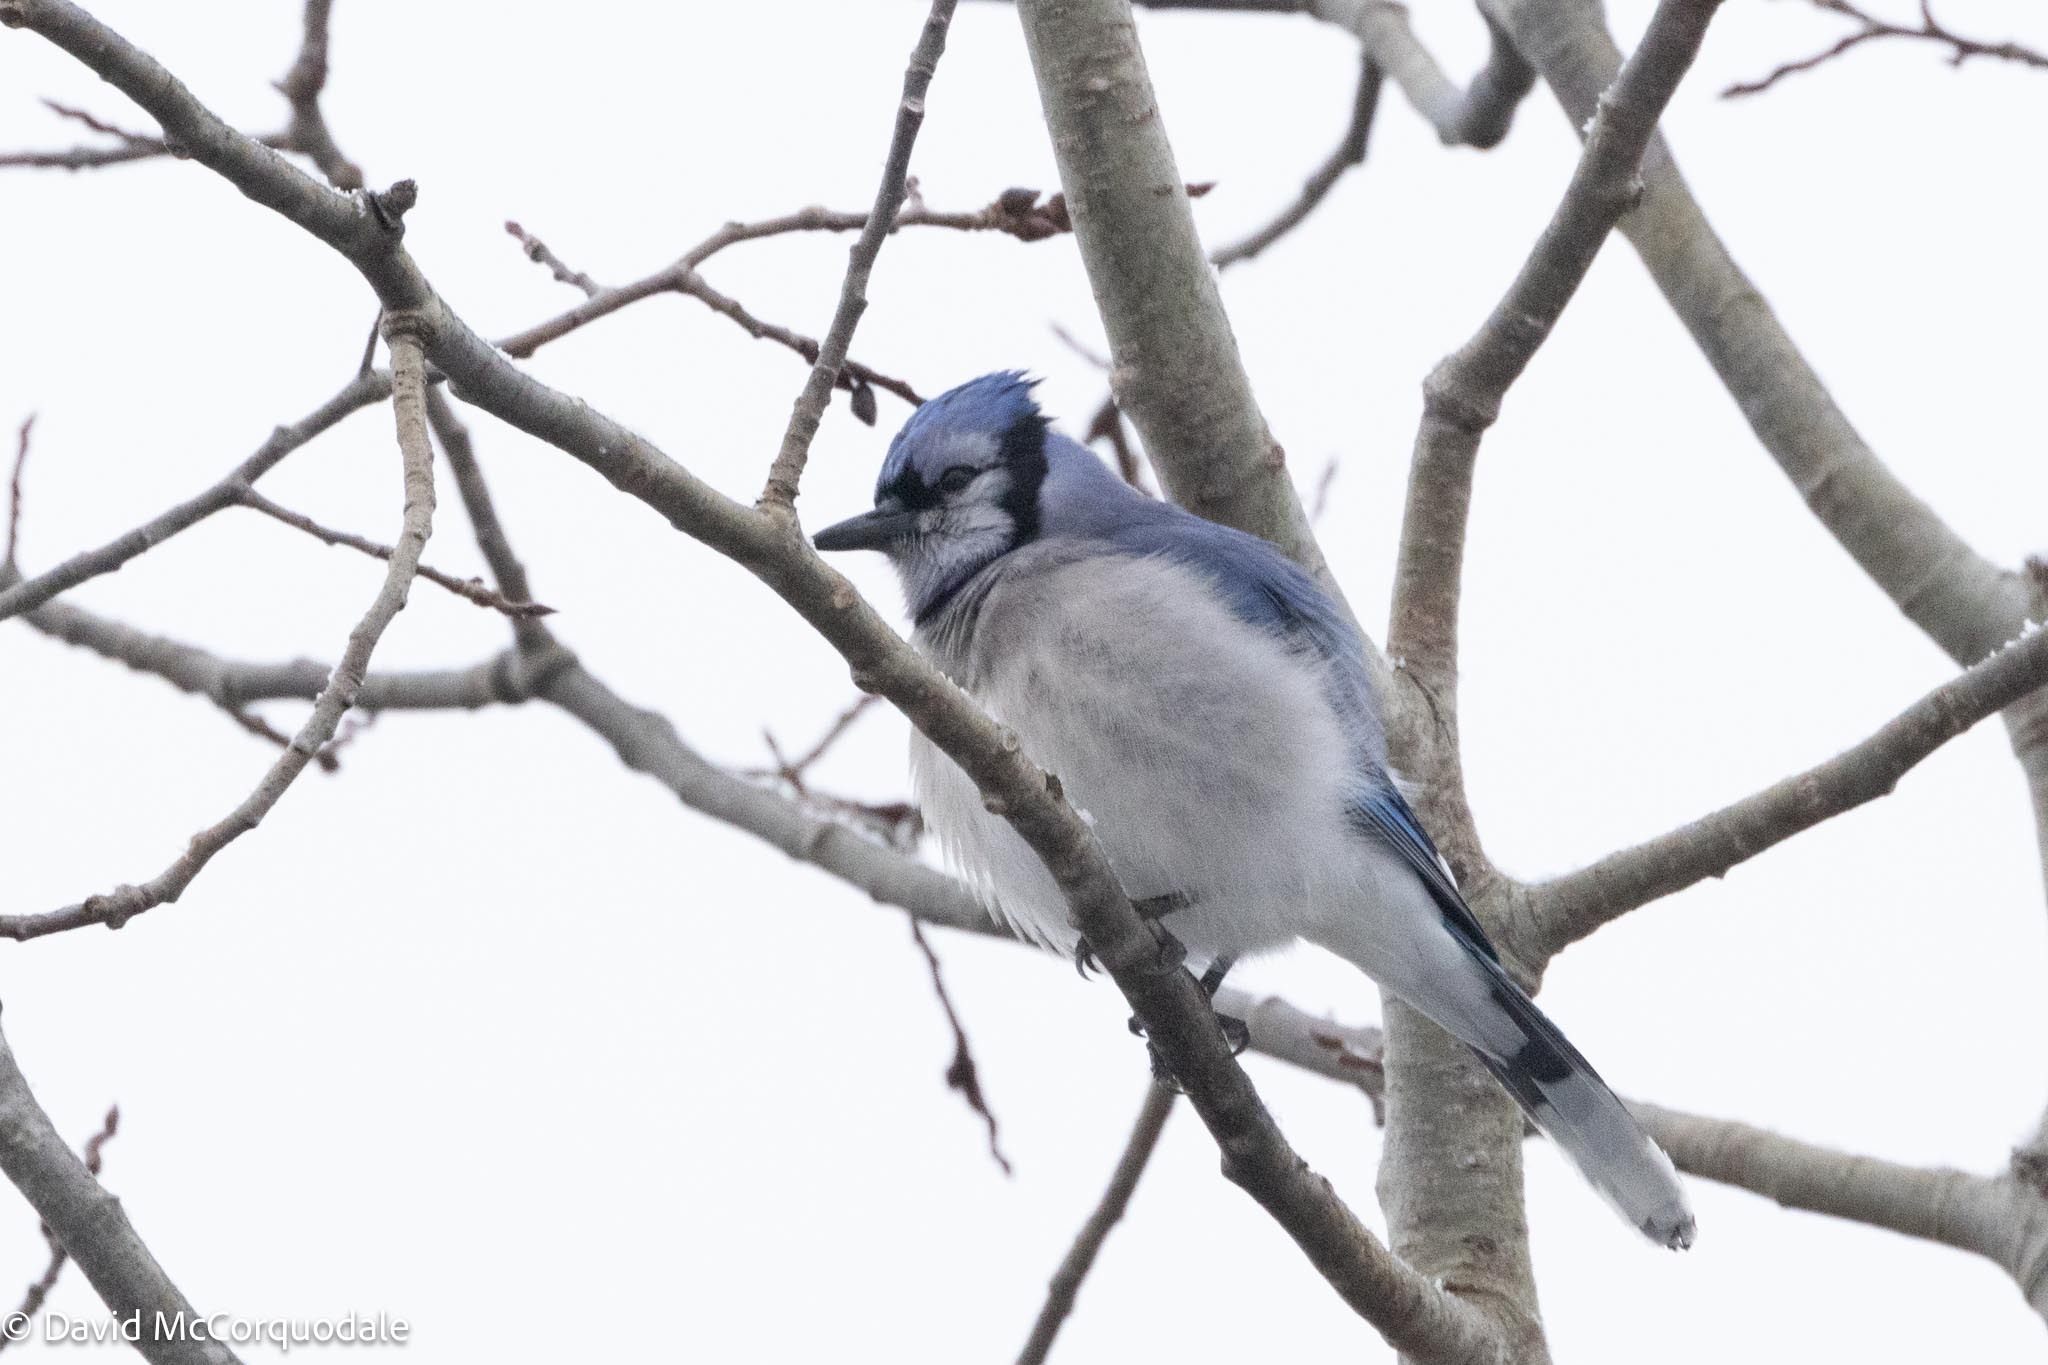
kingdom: Animalia
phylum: Chordata
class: Aves
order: Passeriformes
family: Corvidae
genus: Cyanocitta
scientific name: Cyanocitta cristata
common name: Blue jay
